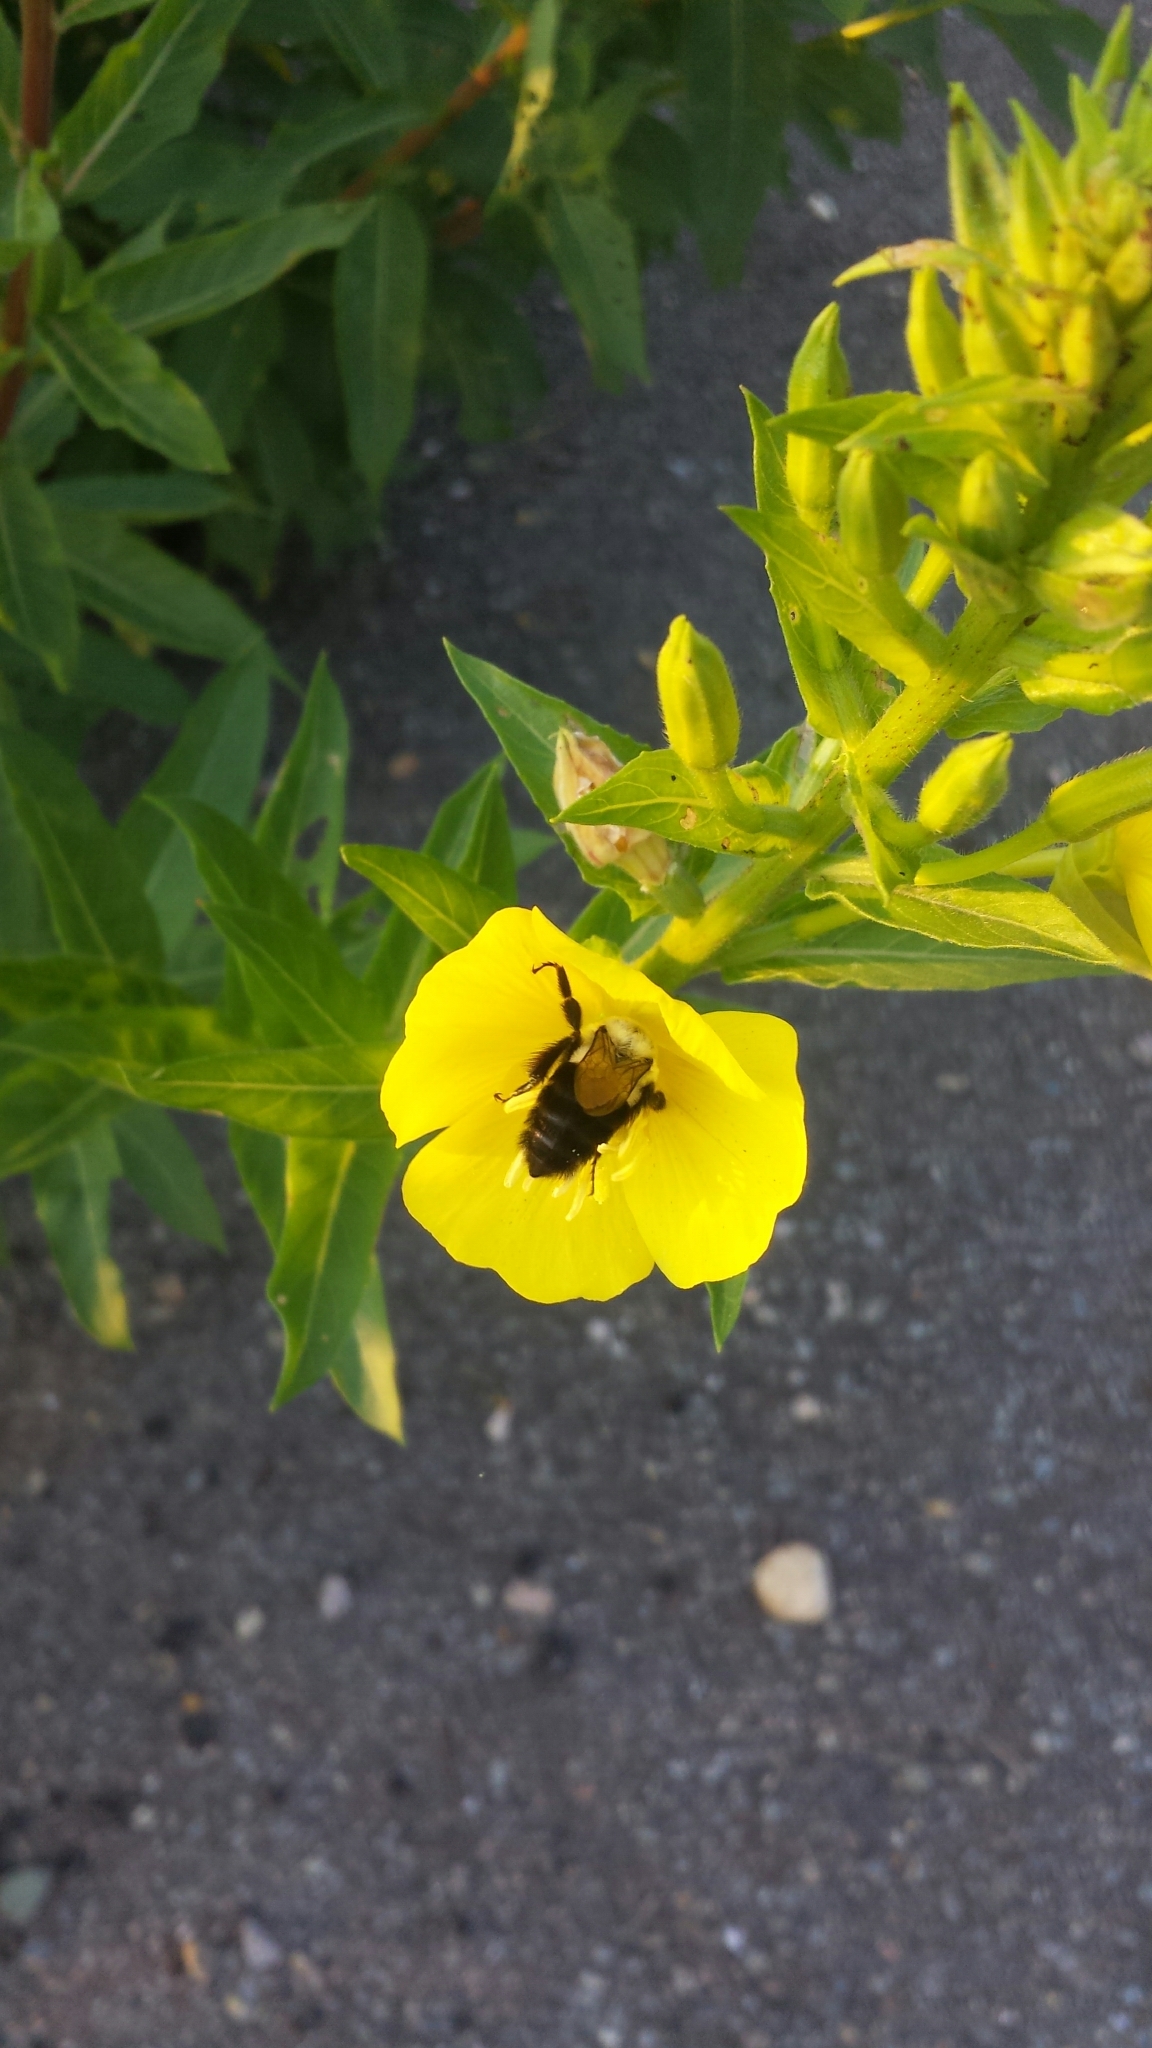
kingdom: Animalia
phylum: Arthropoda
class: Insecta
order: Hymenoptera
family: Apidae
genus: Bombus
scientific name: Bombus impatiens
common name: Common eastern bumble bee
